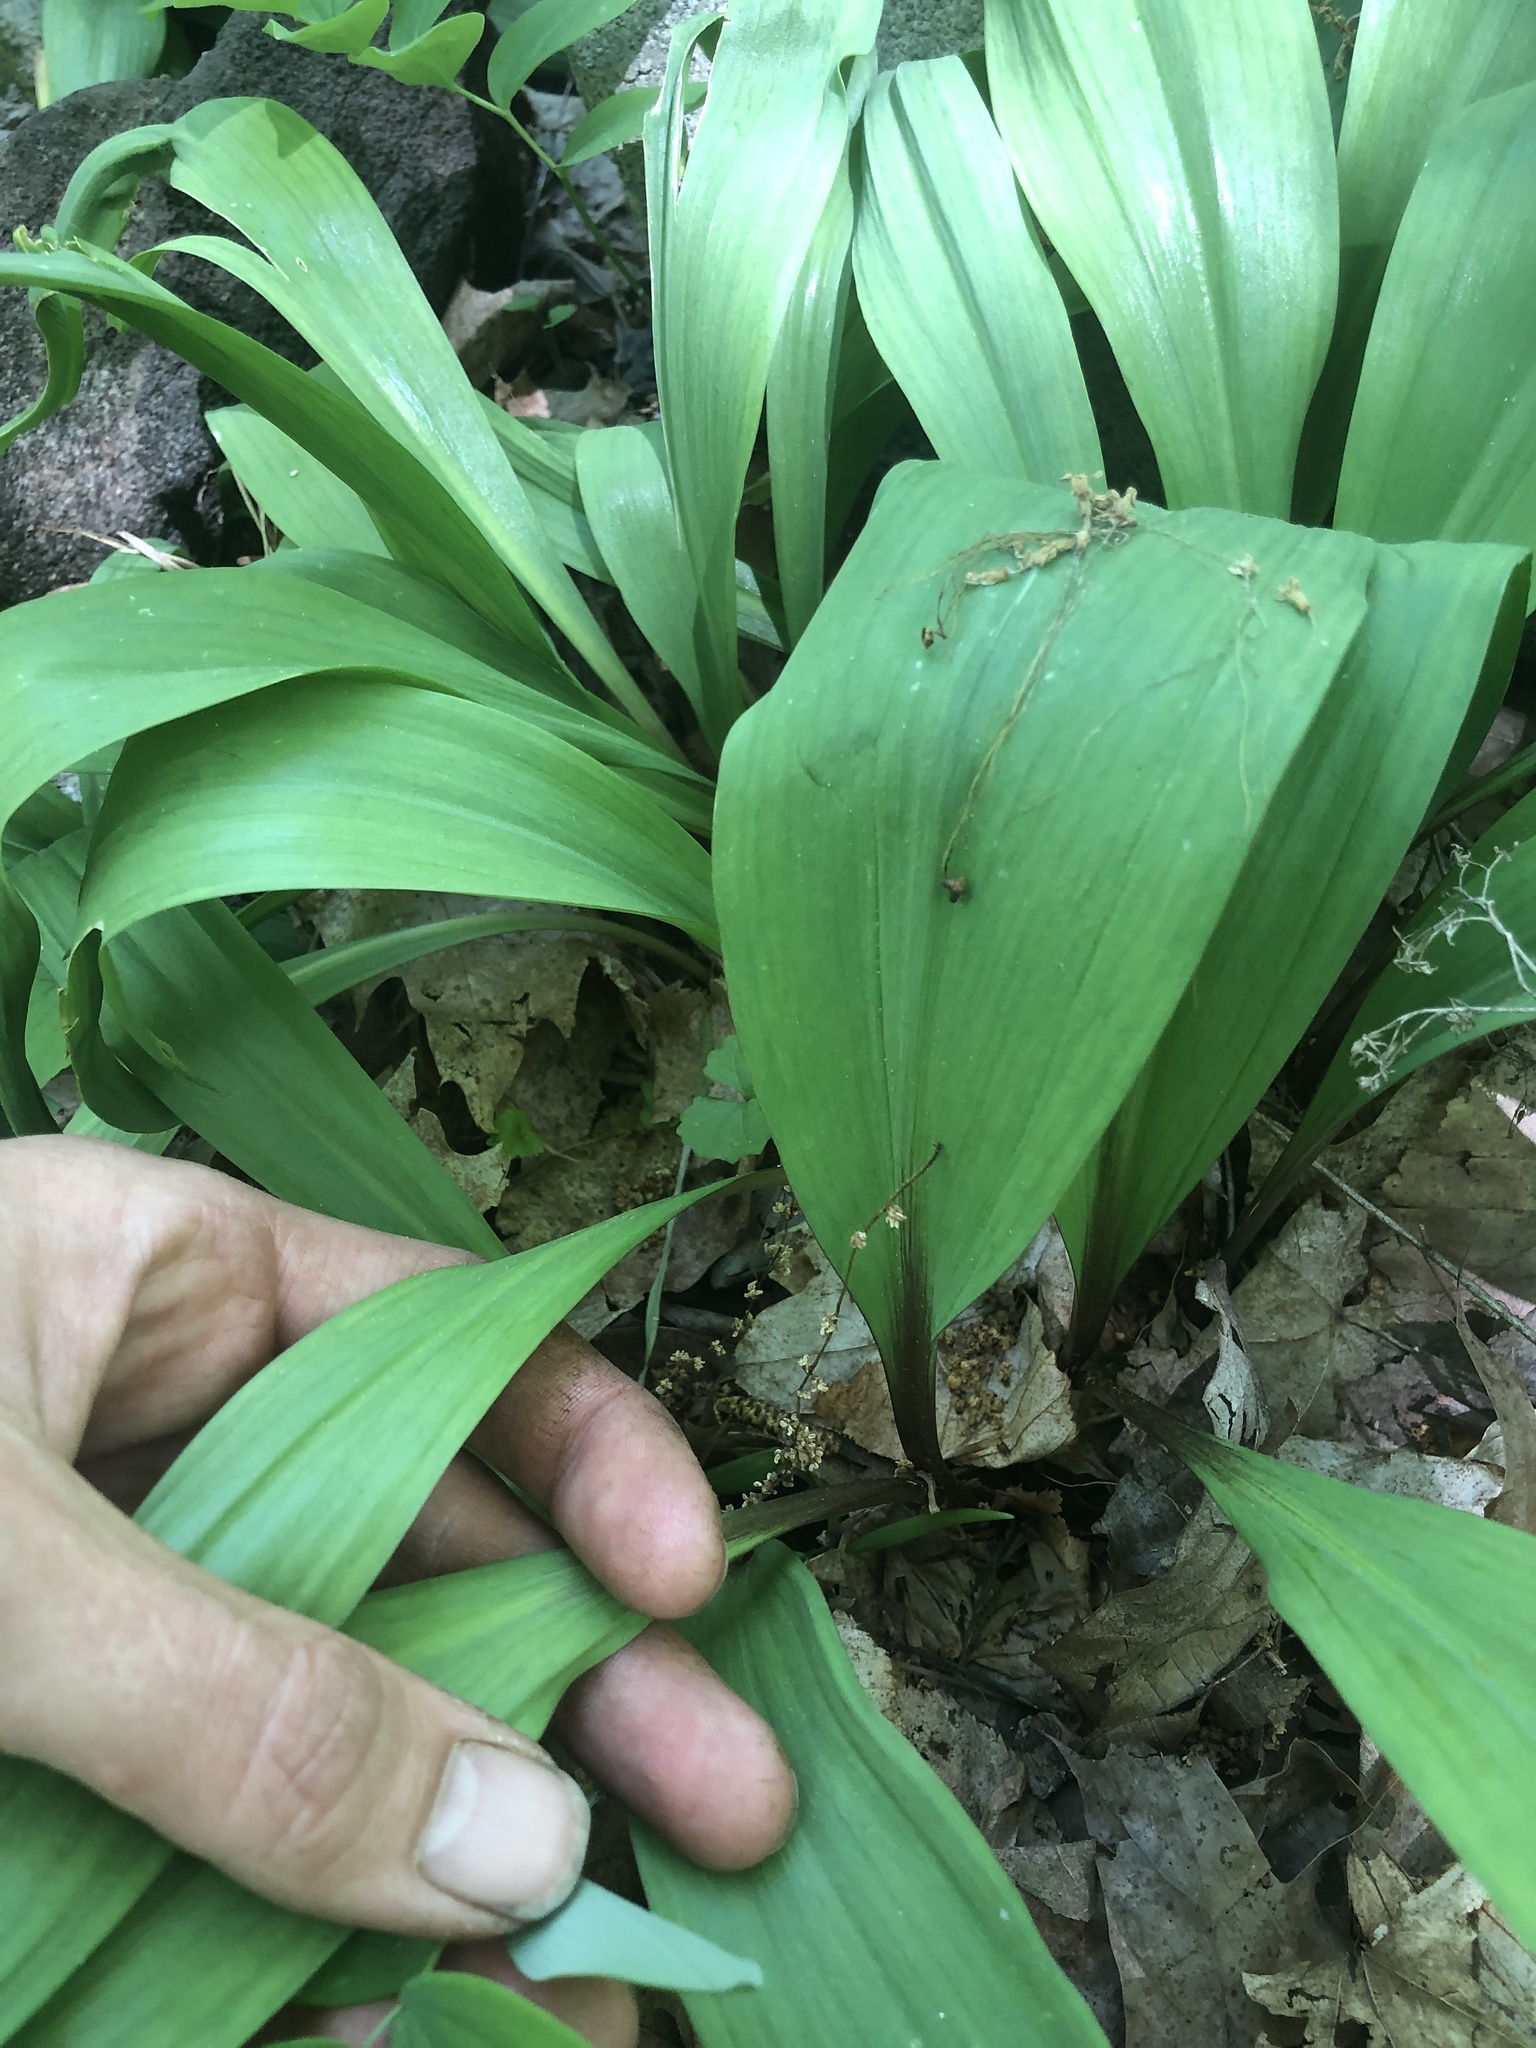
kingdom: Plantae
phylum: Tracheophyta
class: Liliopsida
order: Asparagales
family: Amaryllidaceae
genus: Allium
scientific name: Allium tricoccum
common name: Ramp
